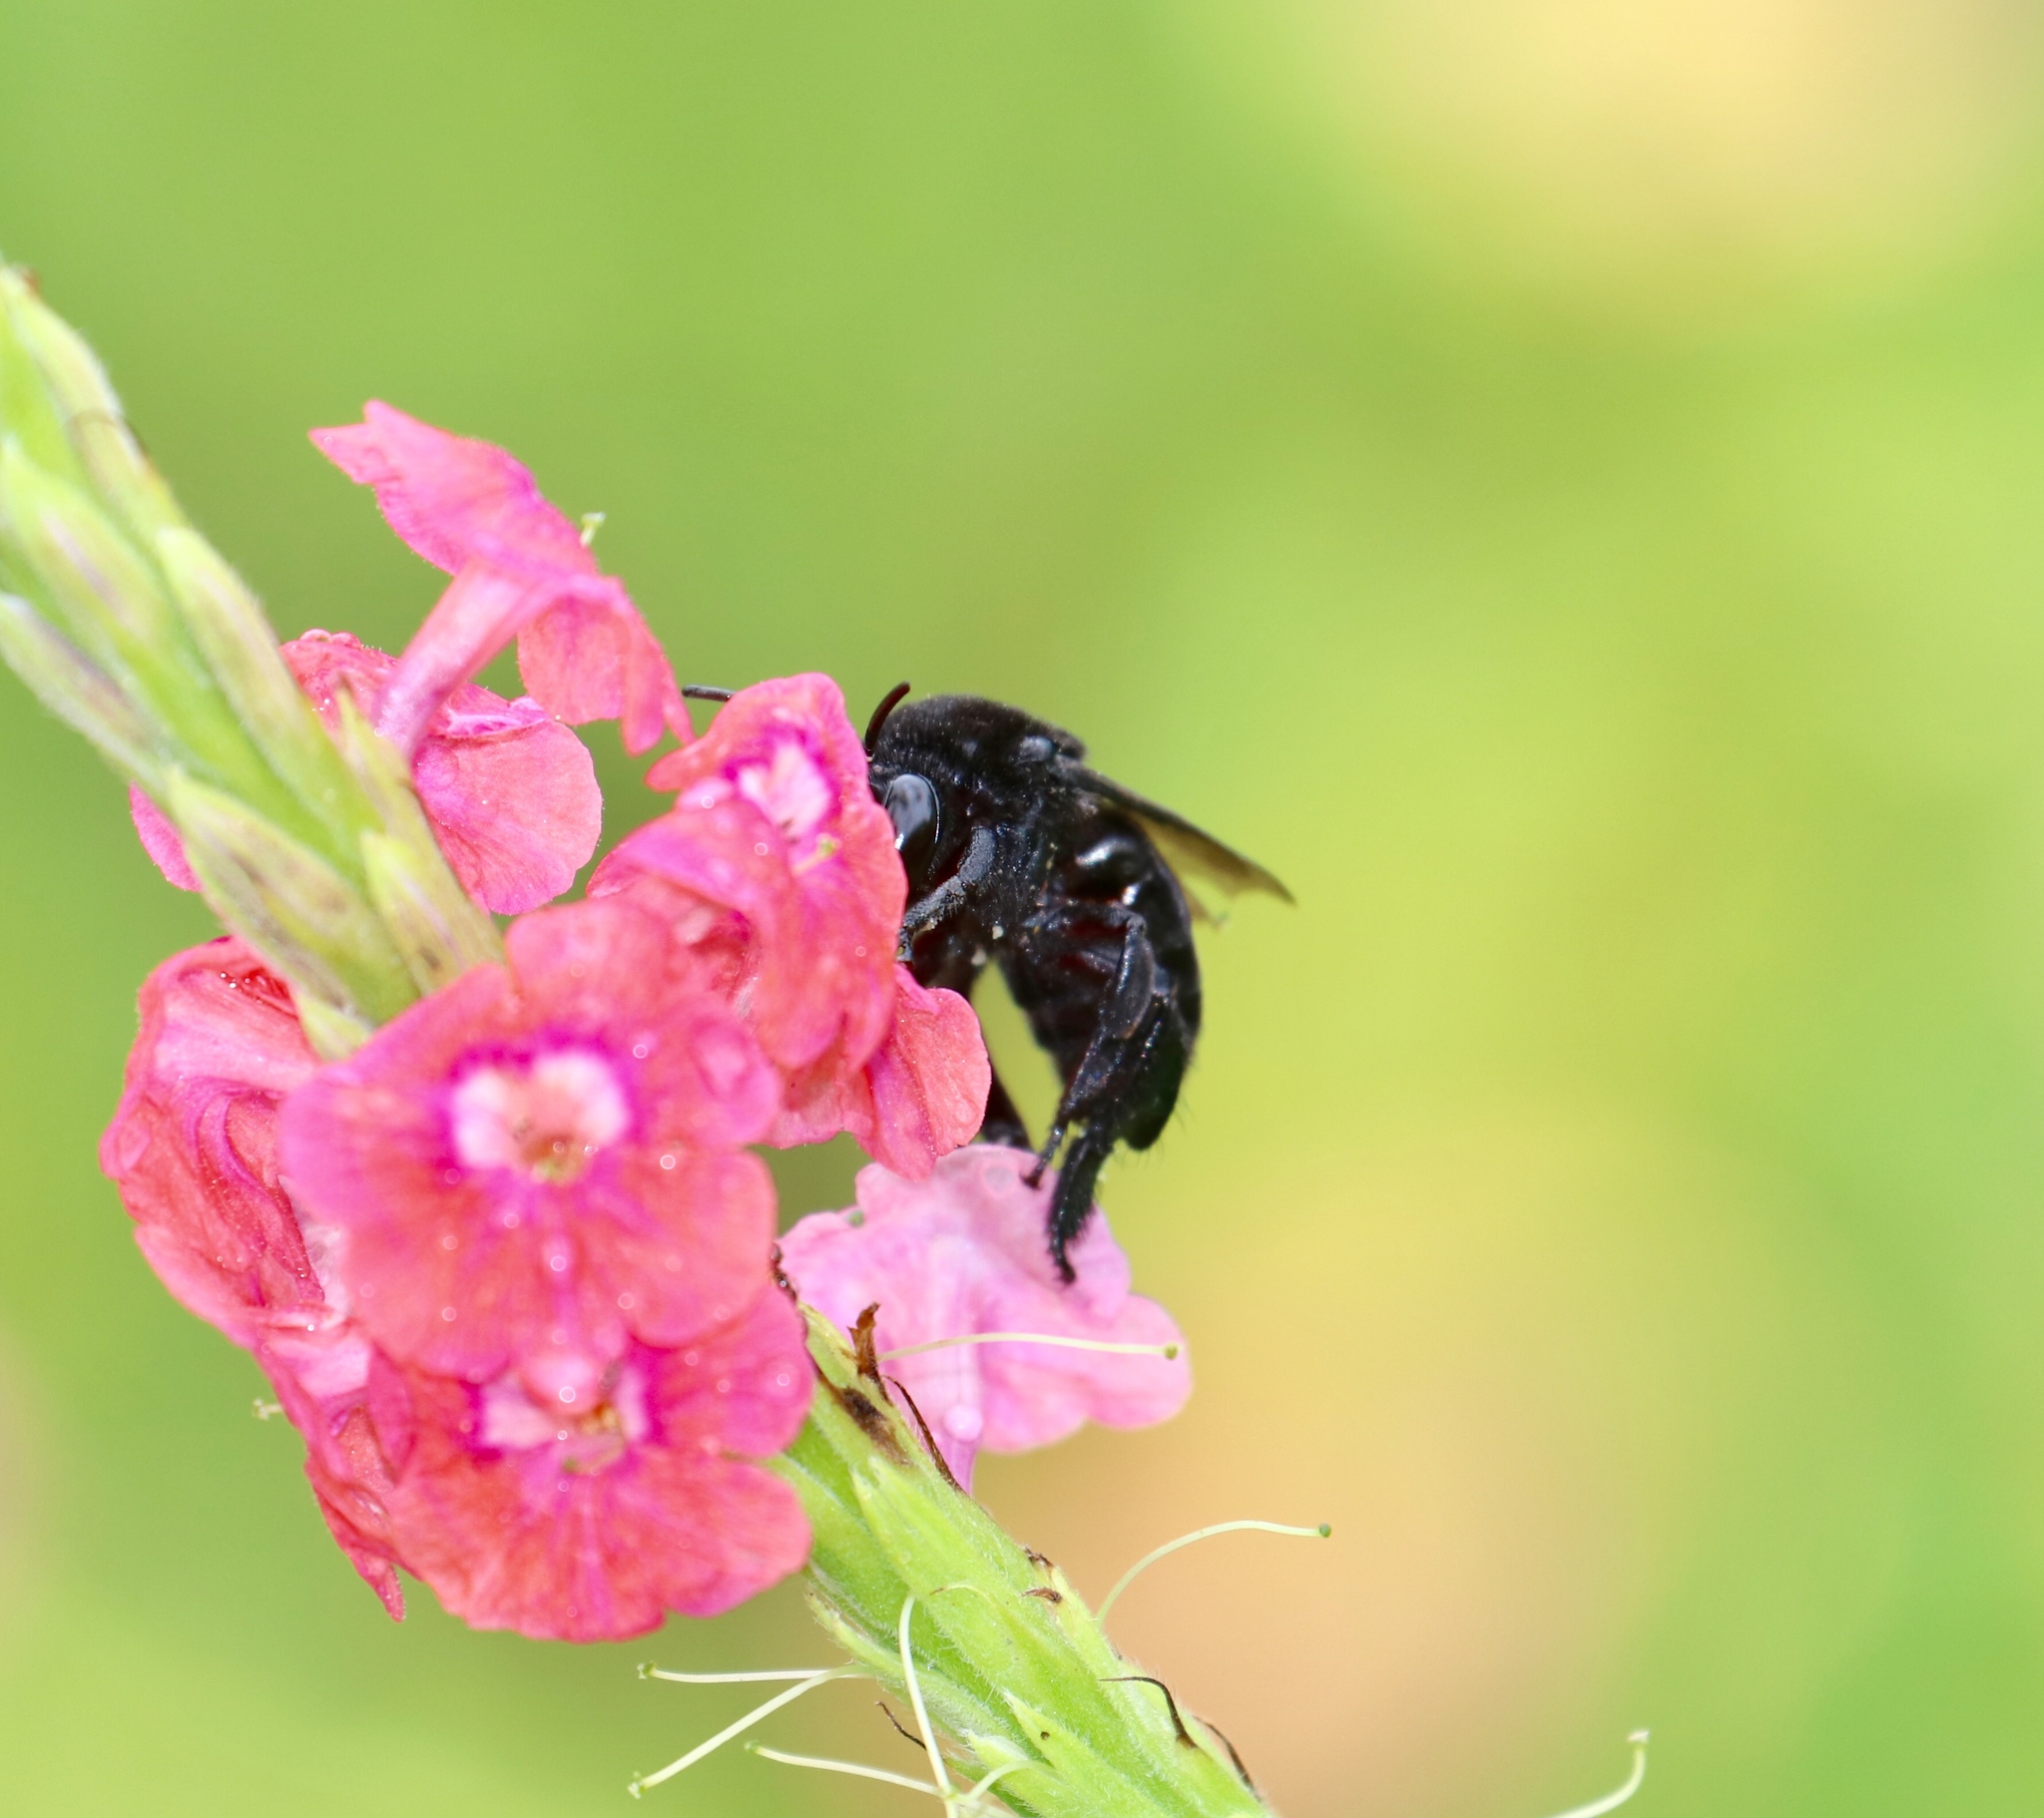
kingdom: Animalia
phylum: Arthropoda
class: Insecta
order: Hymenoptera
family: Apidae
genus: Eulaema
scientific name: Eulaema nigrita
